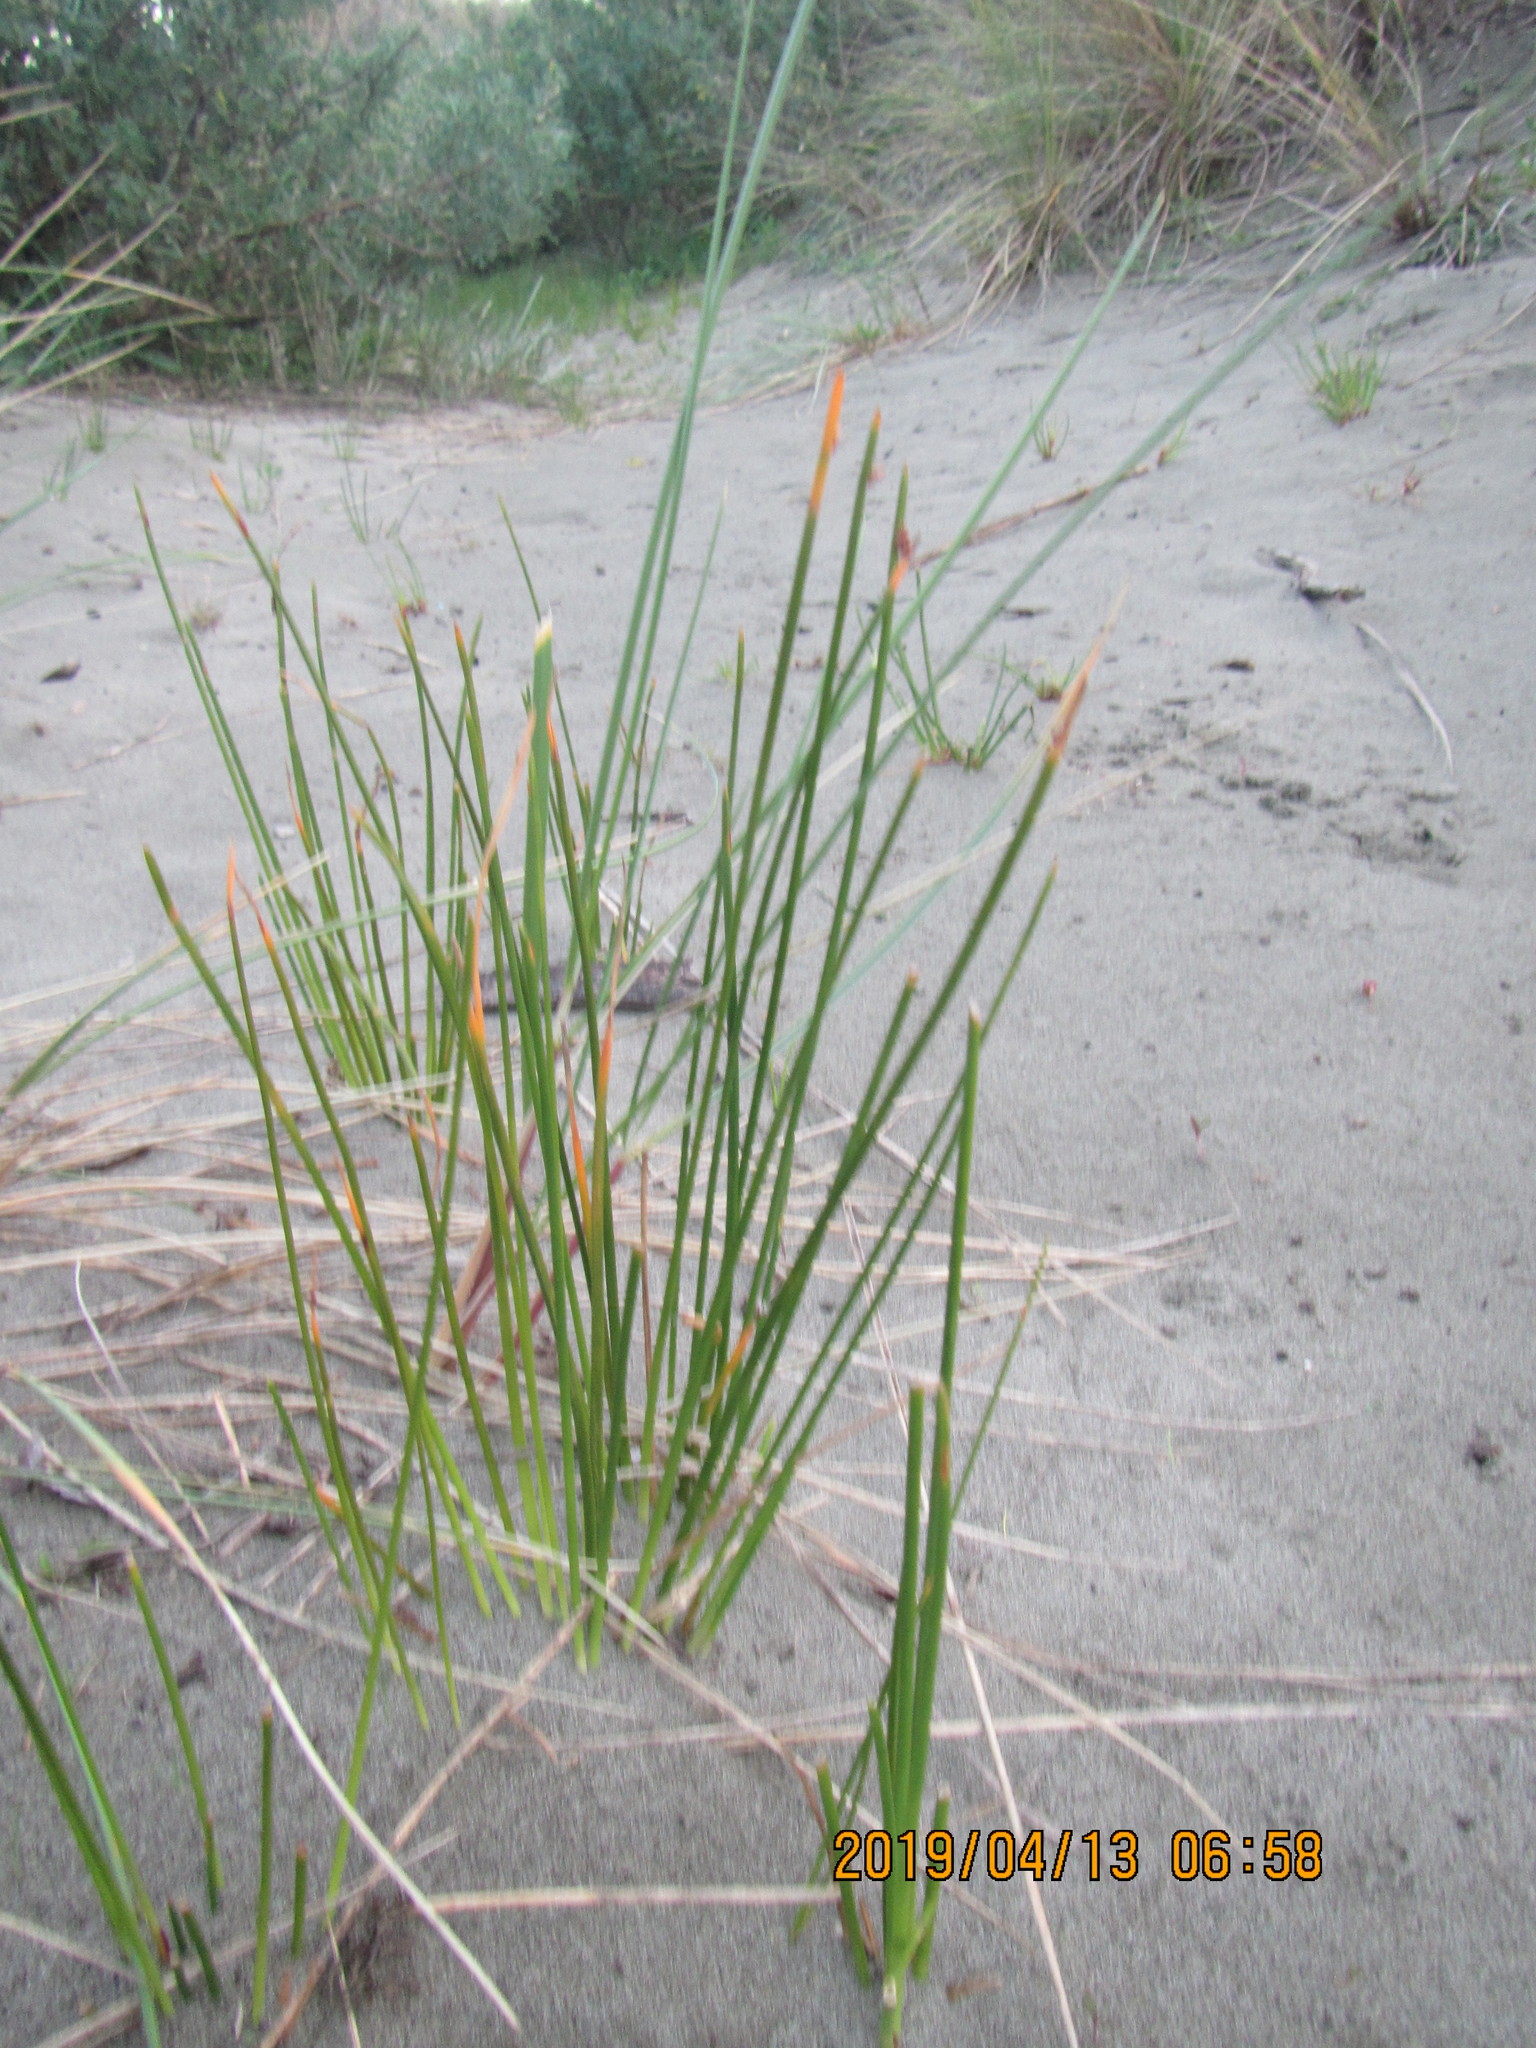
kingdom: Plantae
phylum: Tracheophyta
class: Liliopsida
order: Poales
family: Cyperaceae
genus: Ficinia
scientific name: Ficinia nodosa
